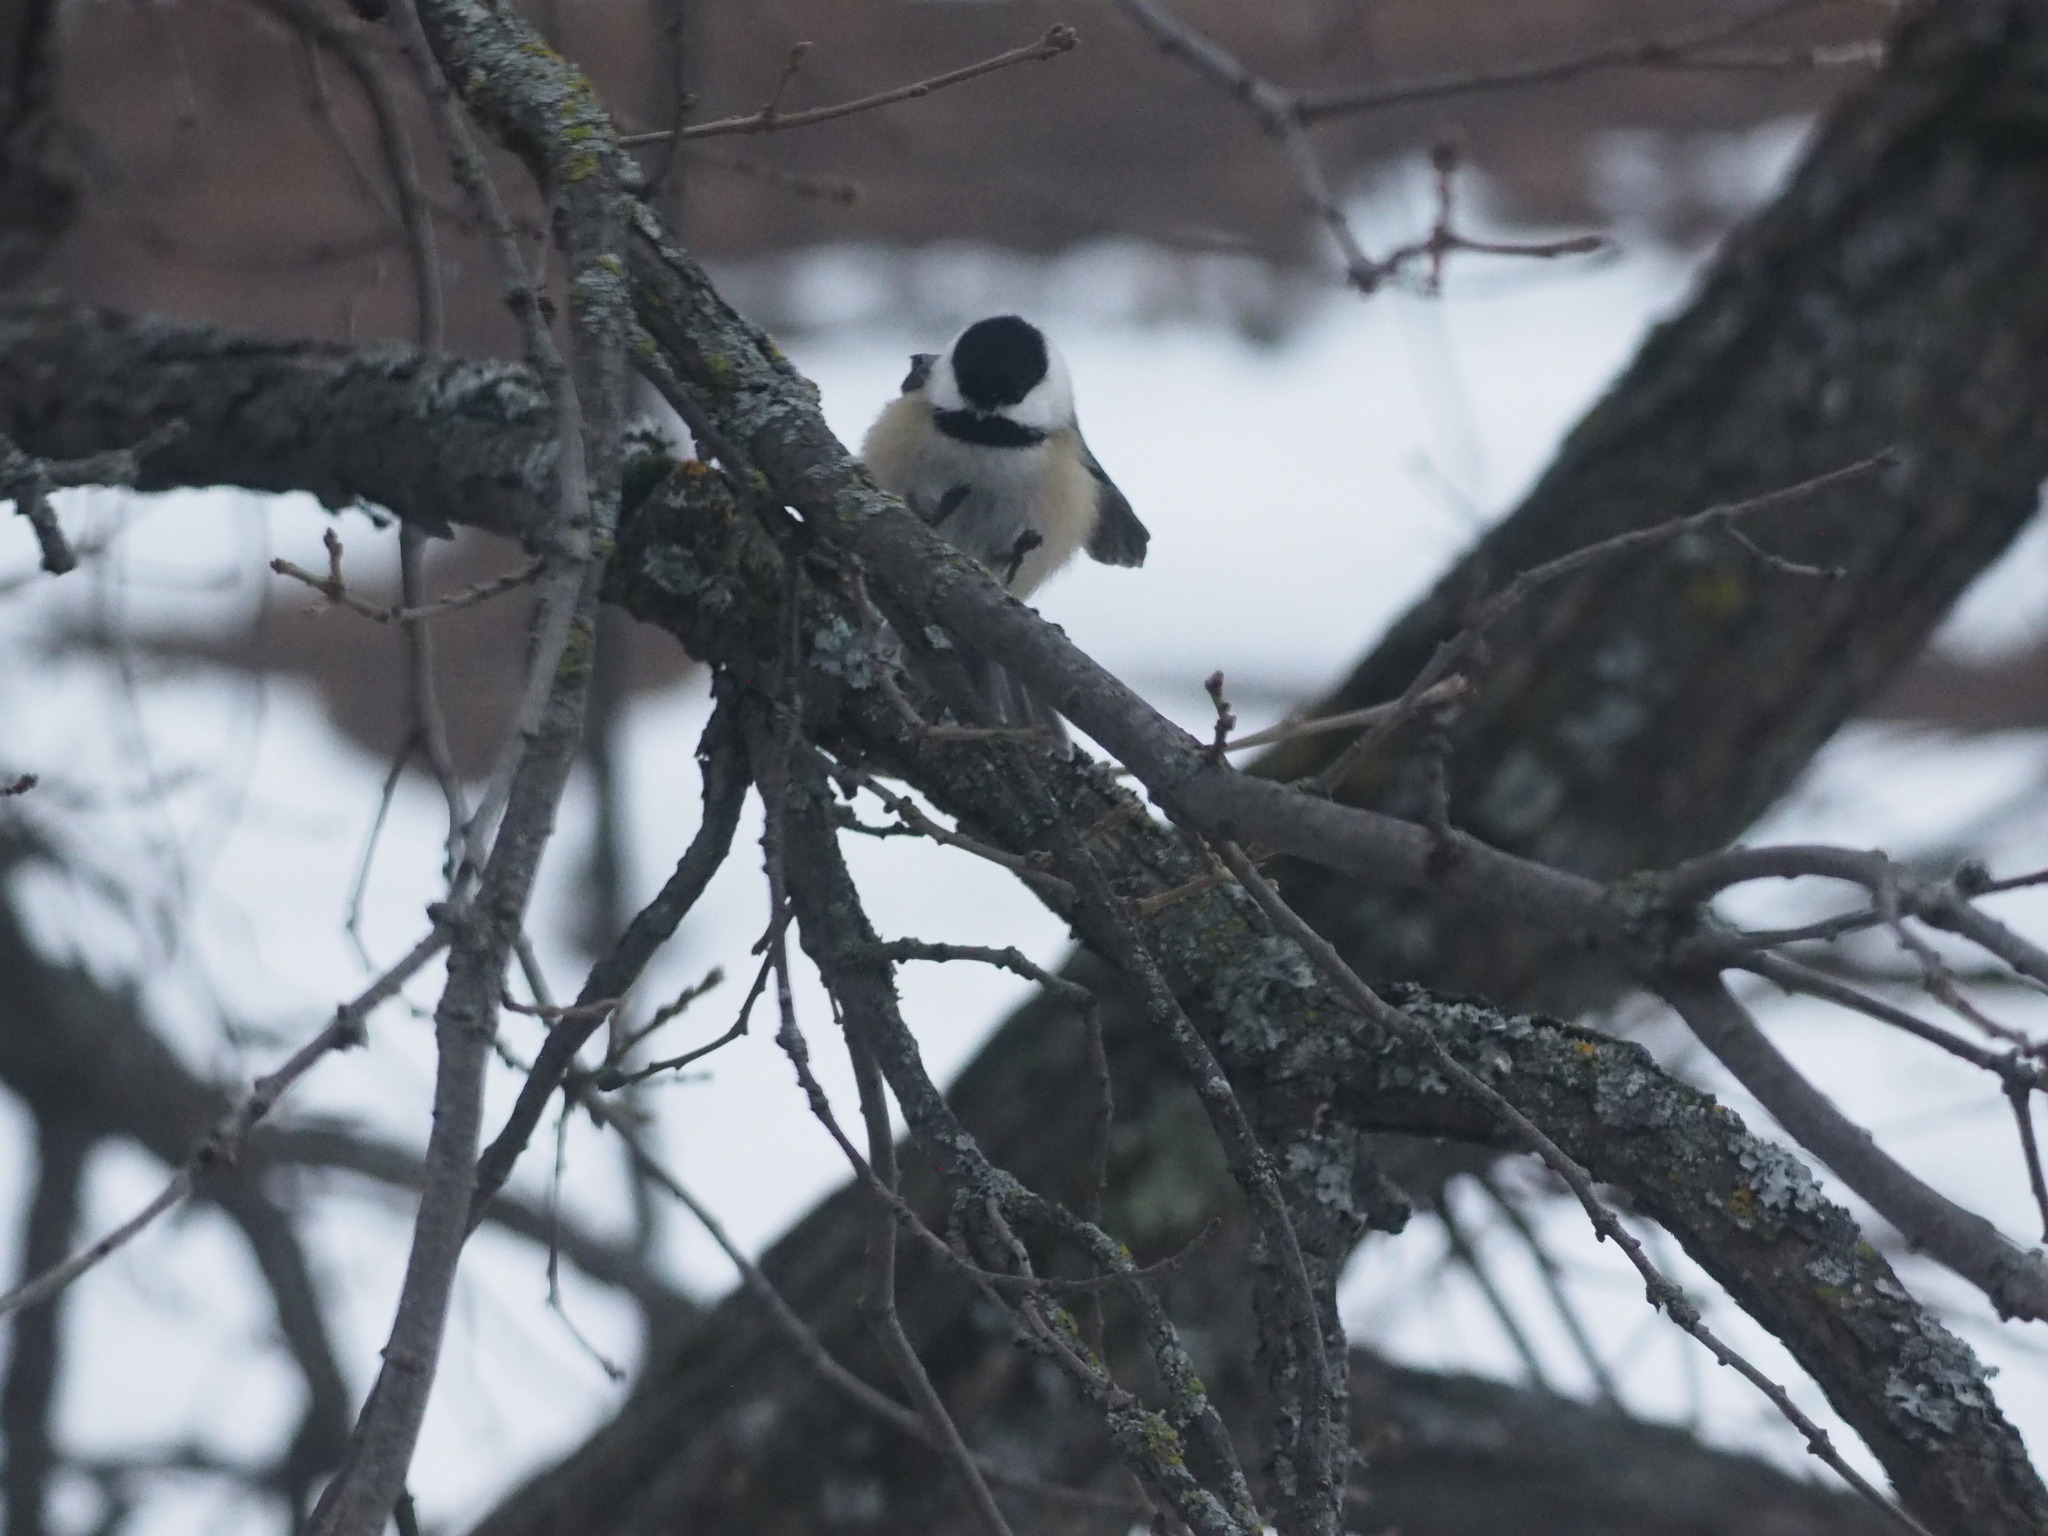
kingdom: Animalia
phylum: Chordata
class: Aves
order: Passeriformes
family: Paridae
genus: Poecile
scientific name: Poecile atricapillus
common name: Black-capped chickadee
